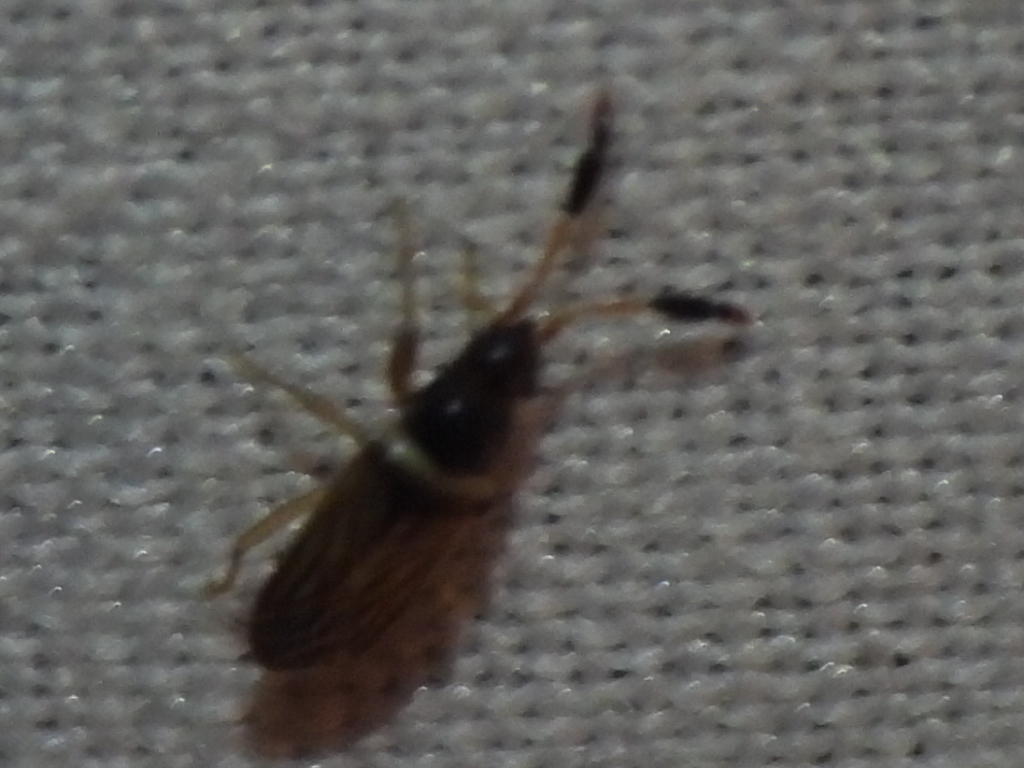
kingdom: Animalia
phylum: Arthropoda
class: Insecta
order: Hemiptera
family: Rhyparochromidae
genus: Ptochiomera
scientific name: Ptochiomera nodosa
